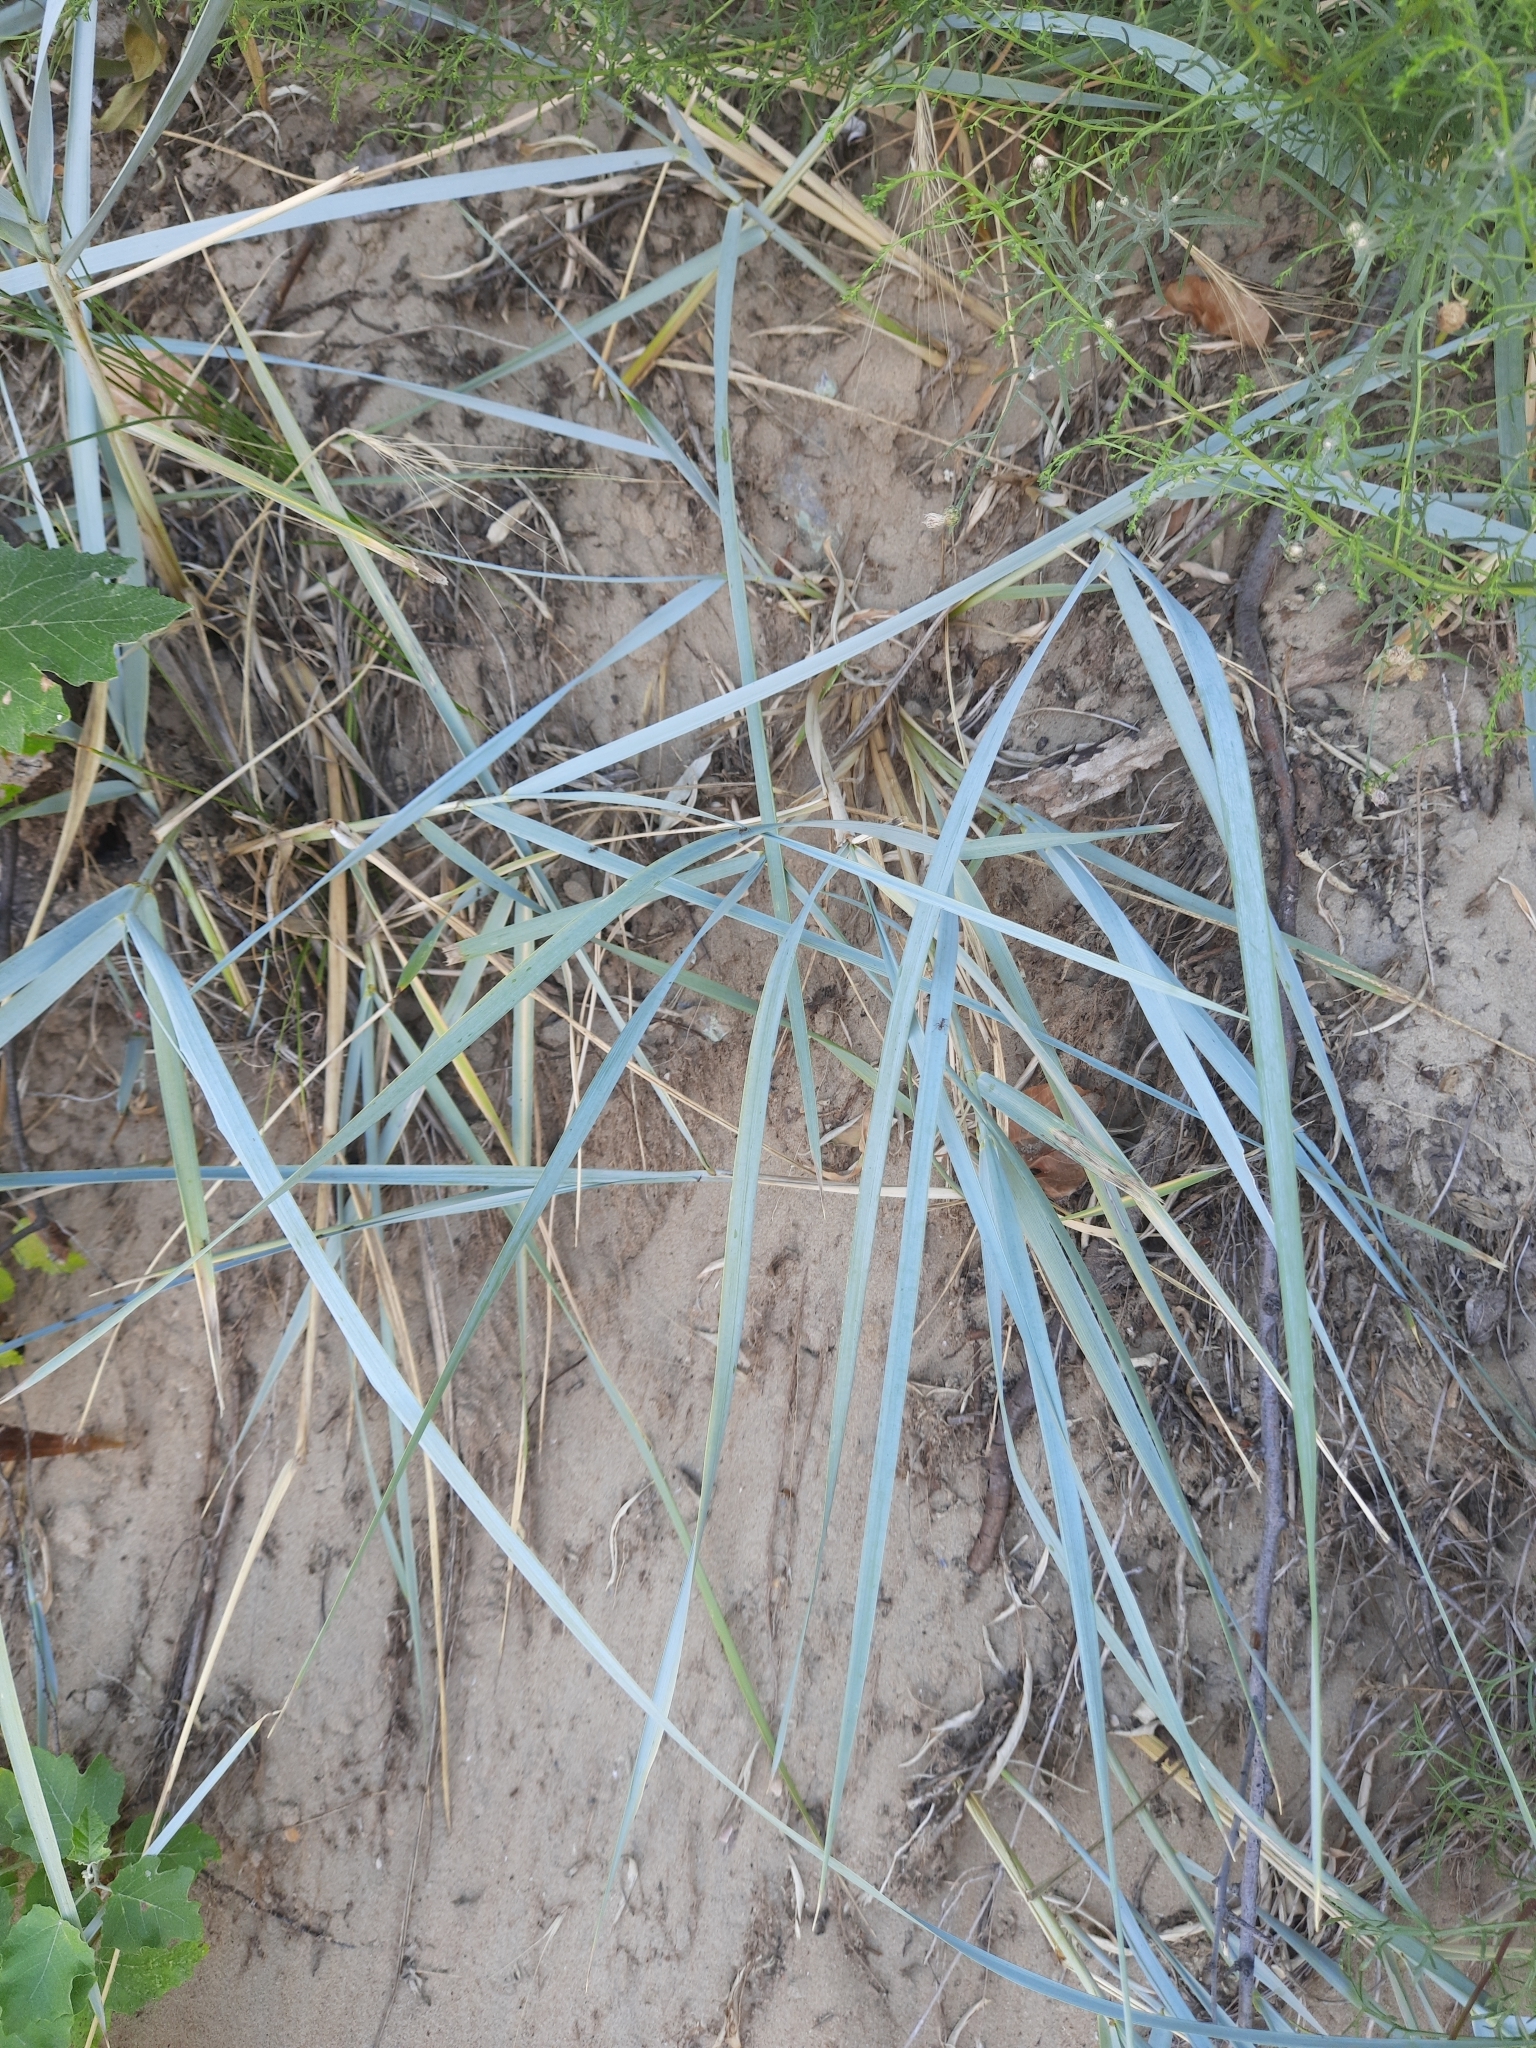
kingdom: Plantae
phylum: Tracheophyta
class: Liliopsida
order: Poales
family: Poaceae
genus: Leymus
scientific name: Leymus racemosus
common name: Mammoth wildrye
